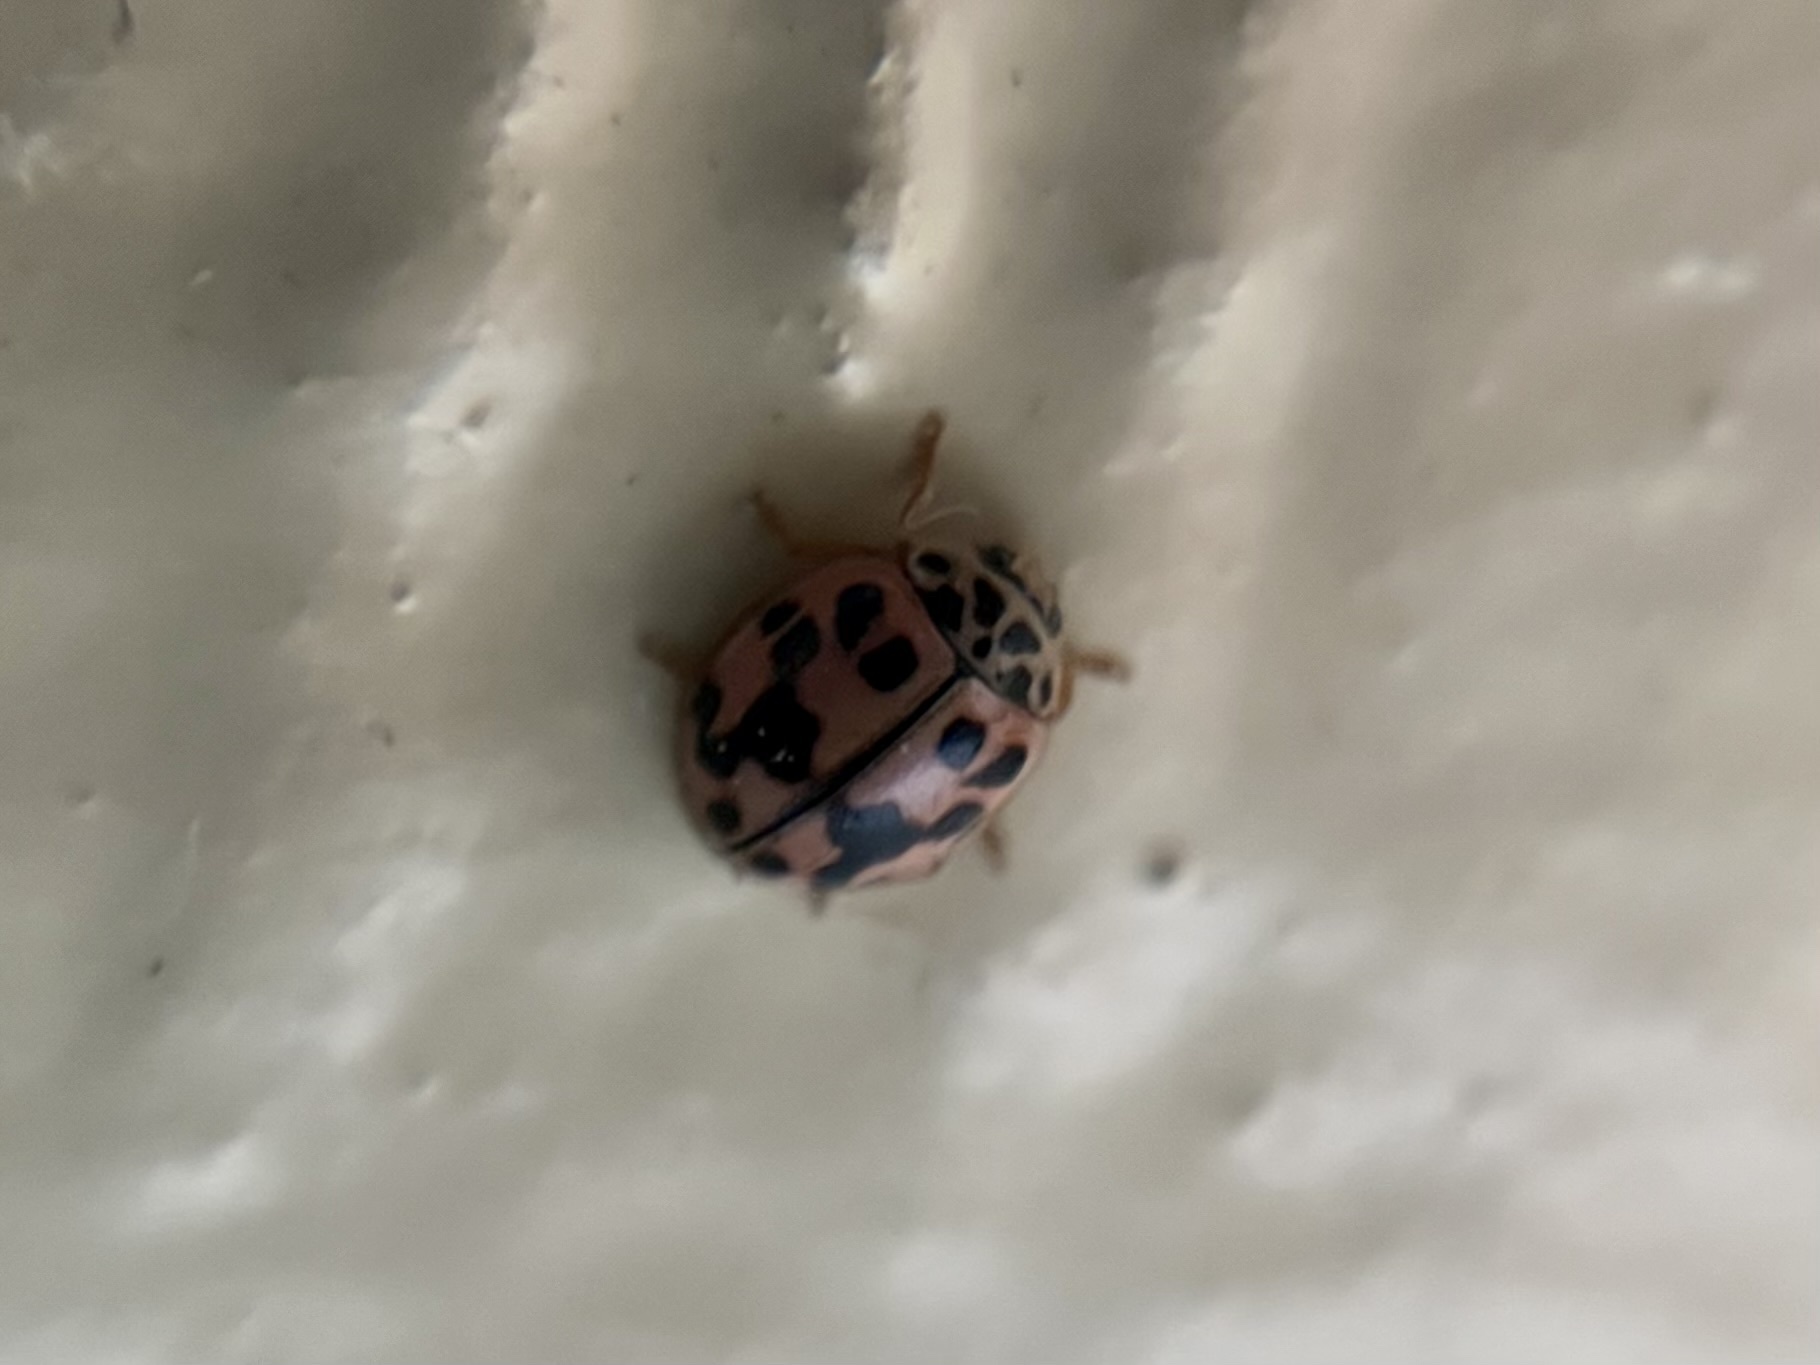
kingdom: Animalia
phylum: Arthropoda
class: Insecta
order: Coleoptera
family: Coccinellidae
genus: Oenopia
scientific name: Oenopia conglobata
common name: Ladybird beetle
